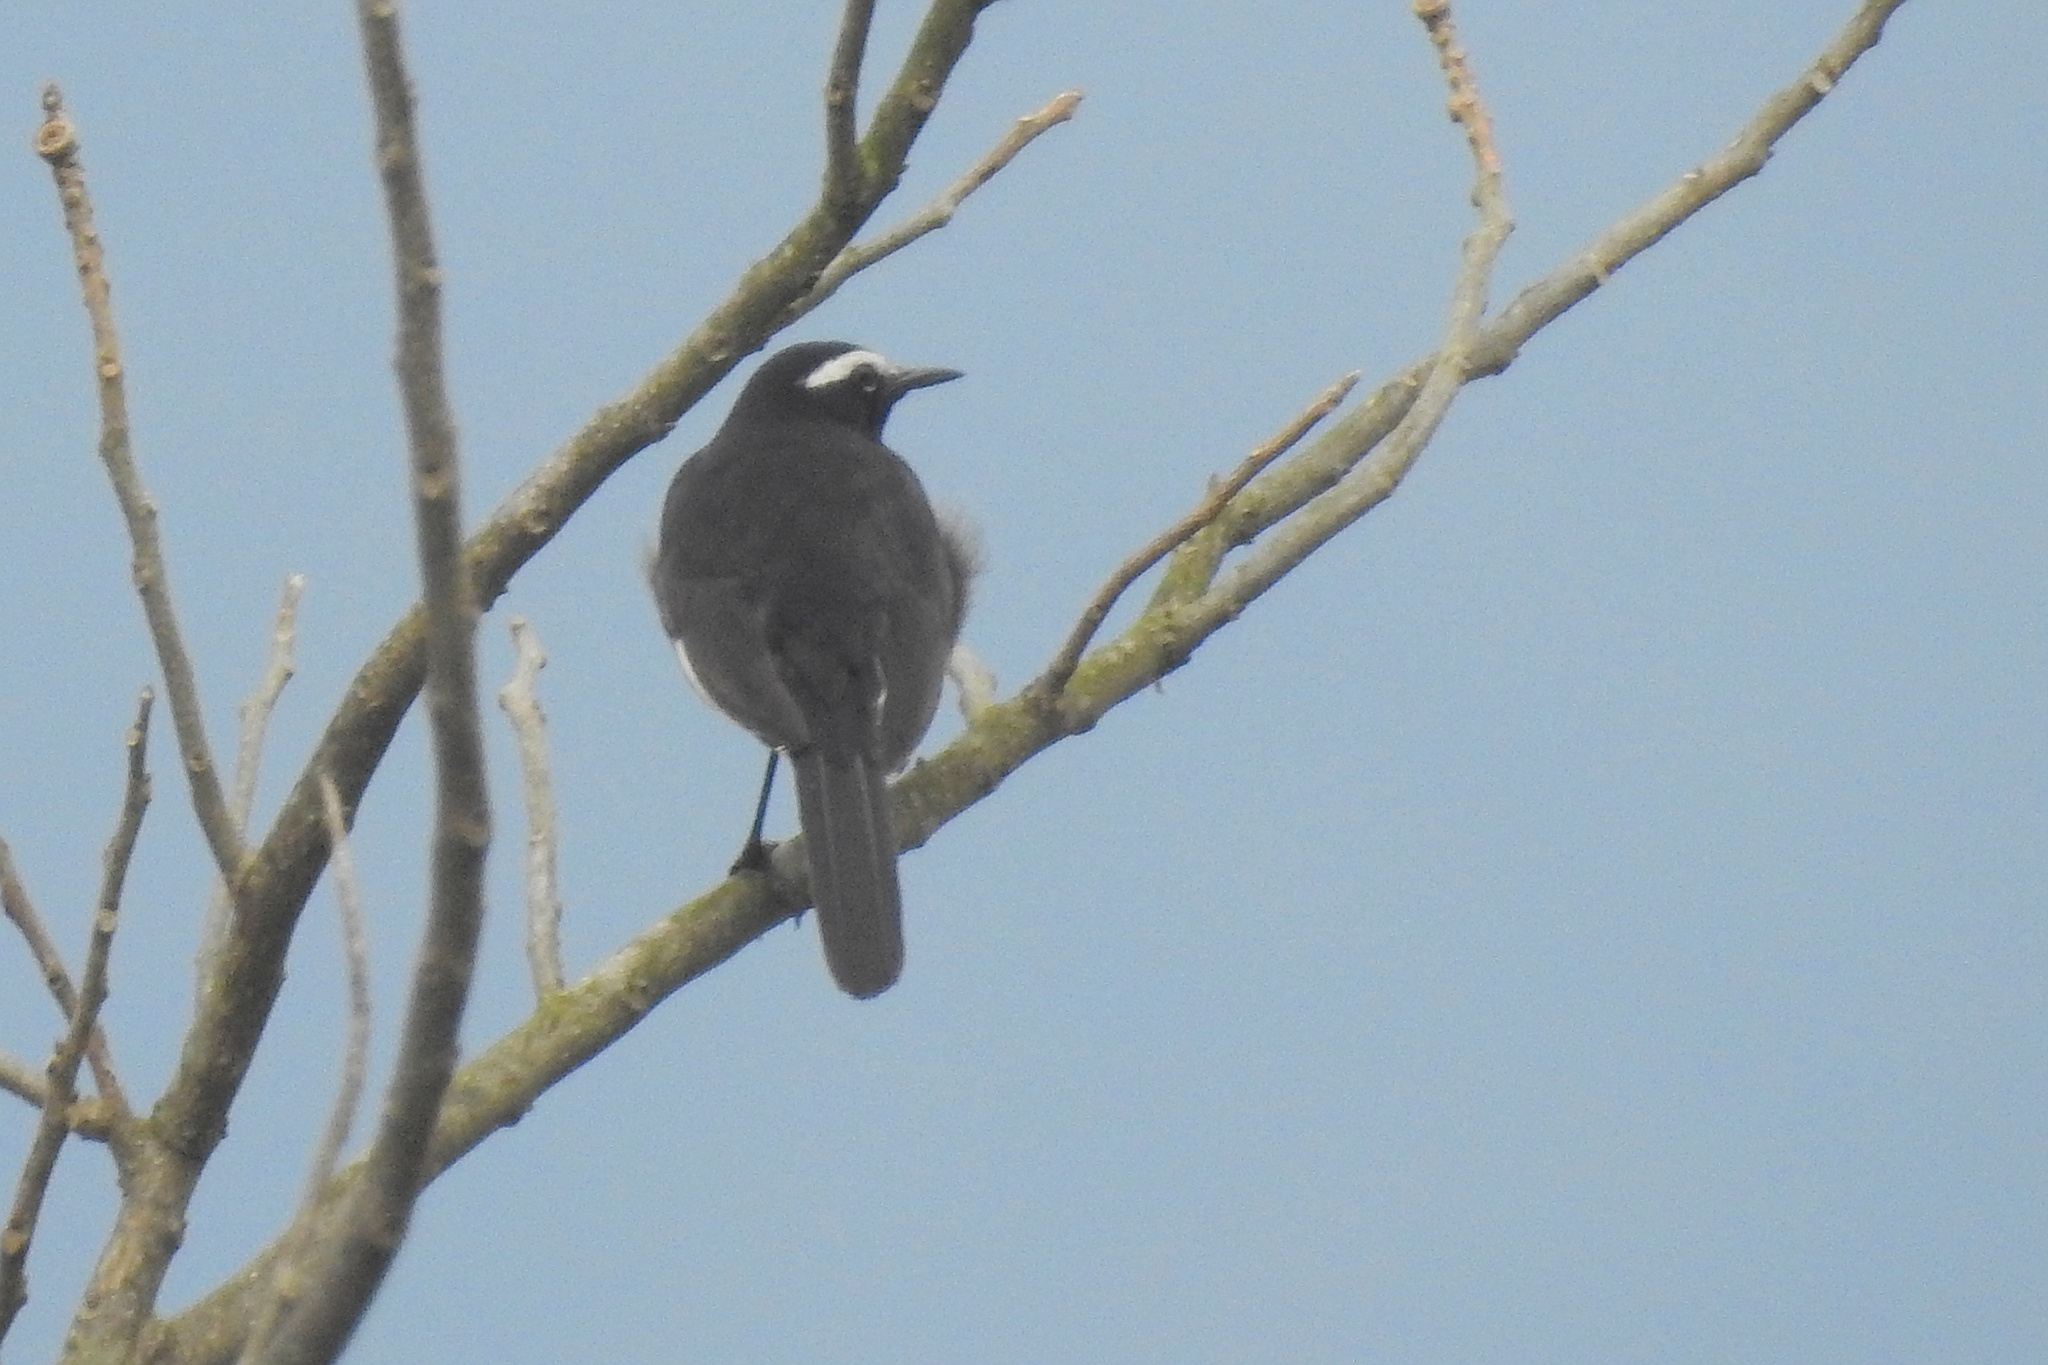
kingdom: Animalia
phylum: Chordata
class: Aves
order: Passeriformes
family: Motacillidae
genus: Motacilla
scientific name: Motacilla maderaspatensis
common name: White-browed wagtail
